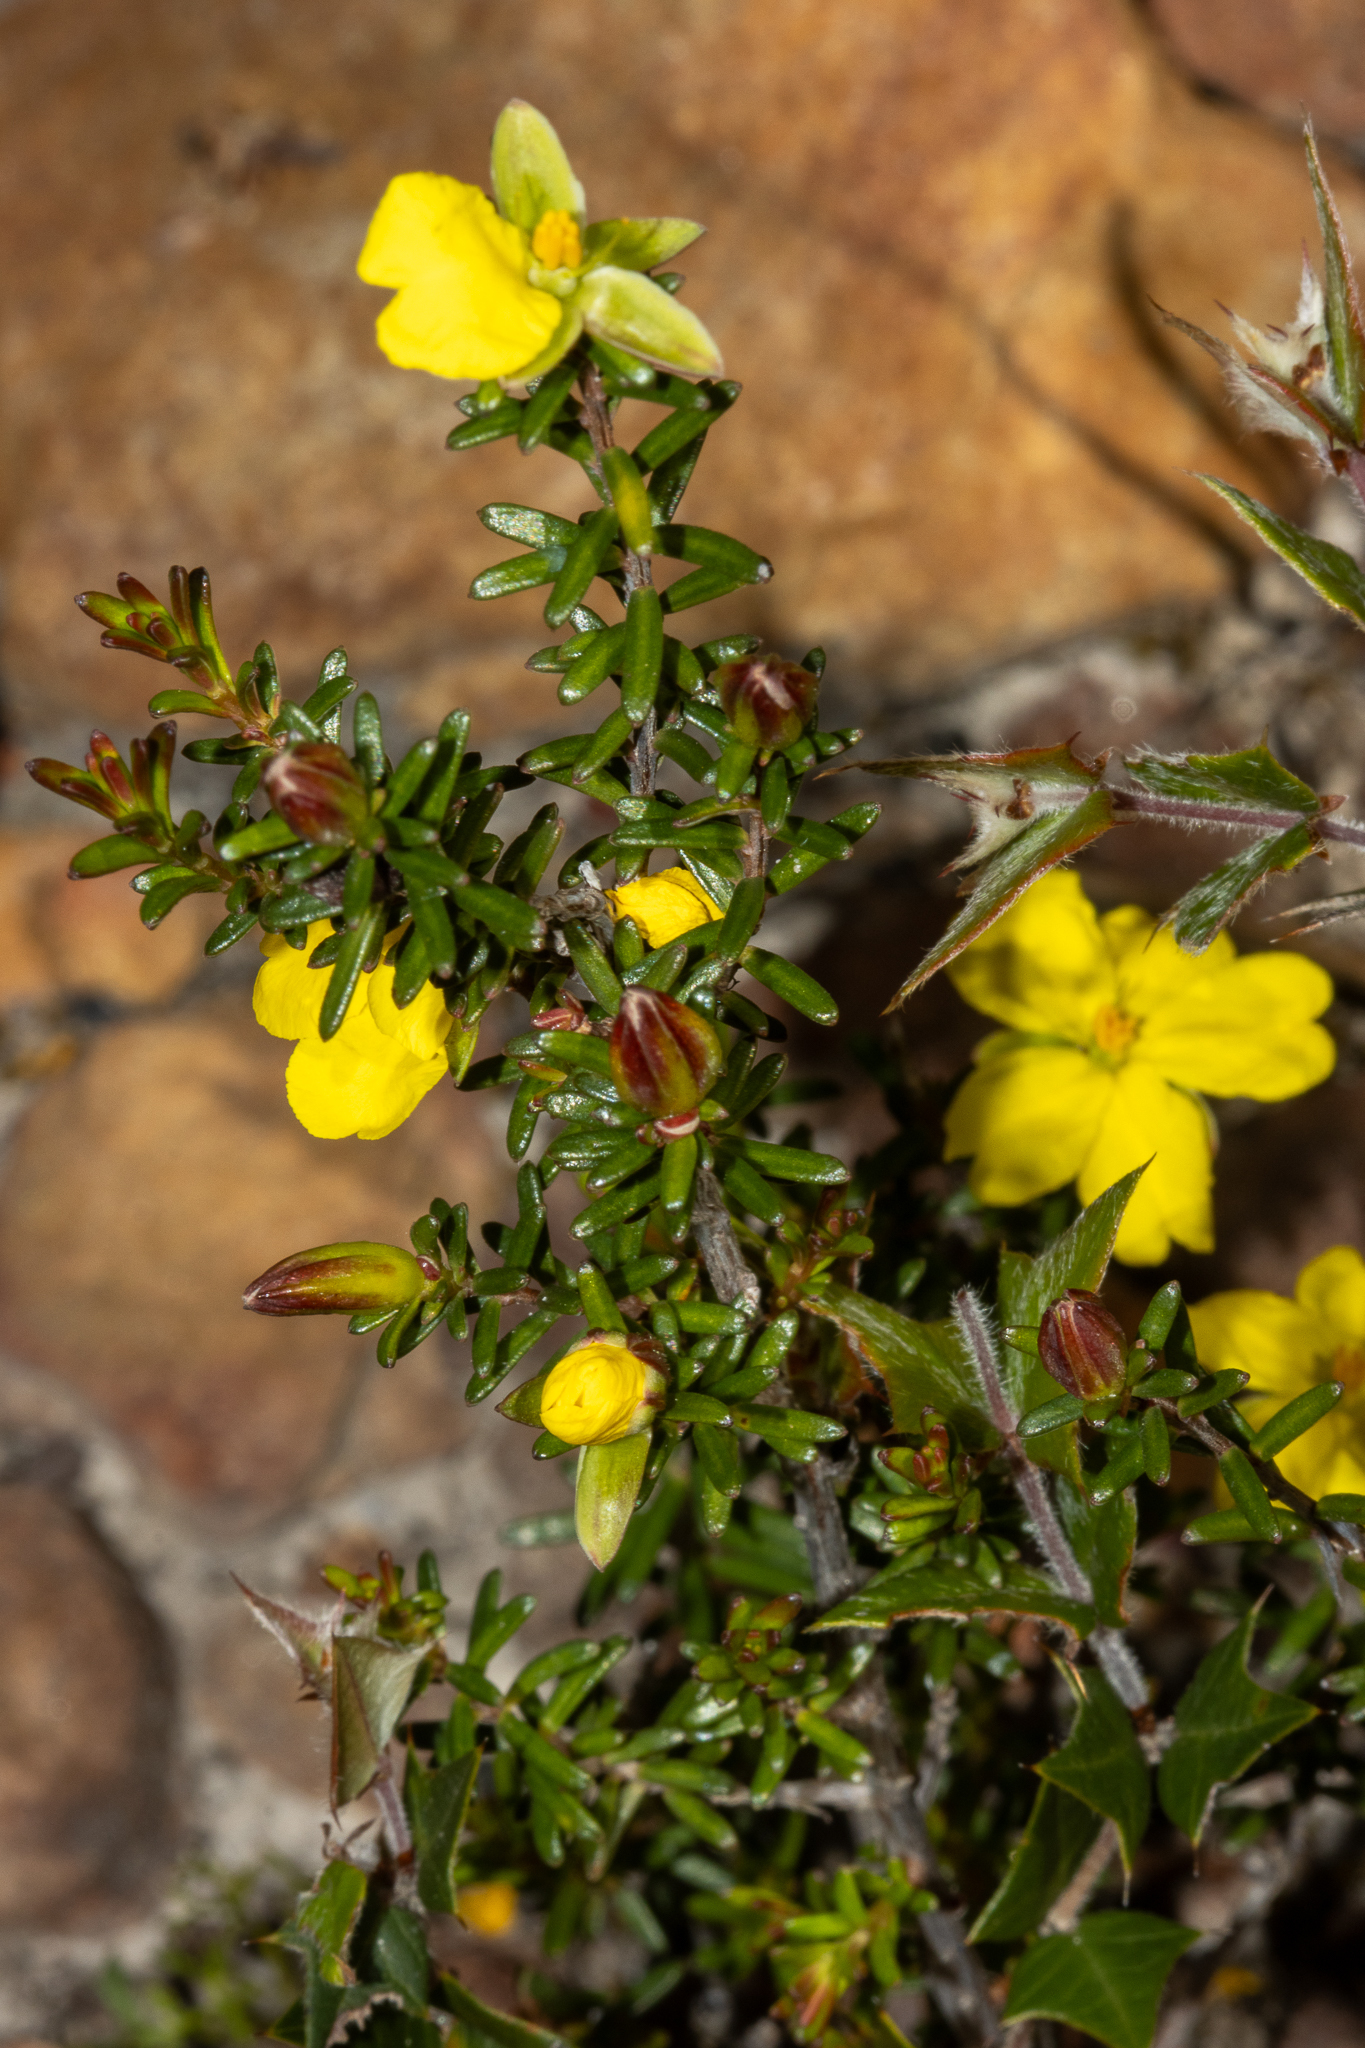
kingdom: Plantae
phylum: Tracheophyta
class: Magnoliopsida
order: Dilleniales
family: Dilleniaceae
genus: Hibbertia
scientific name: Hibbertia devitata
